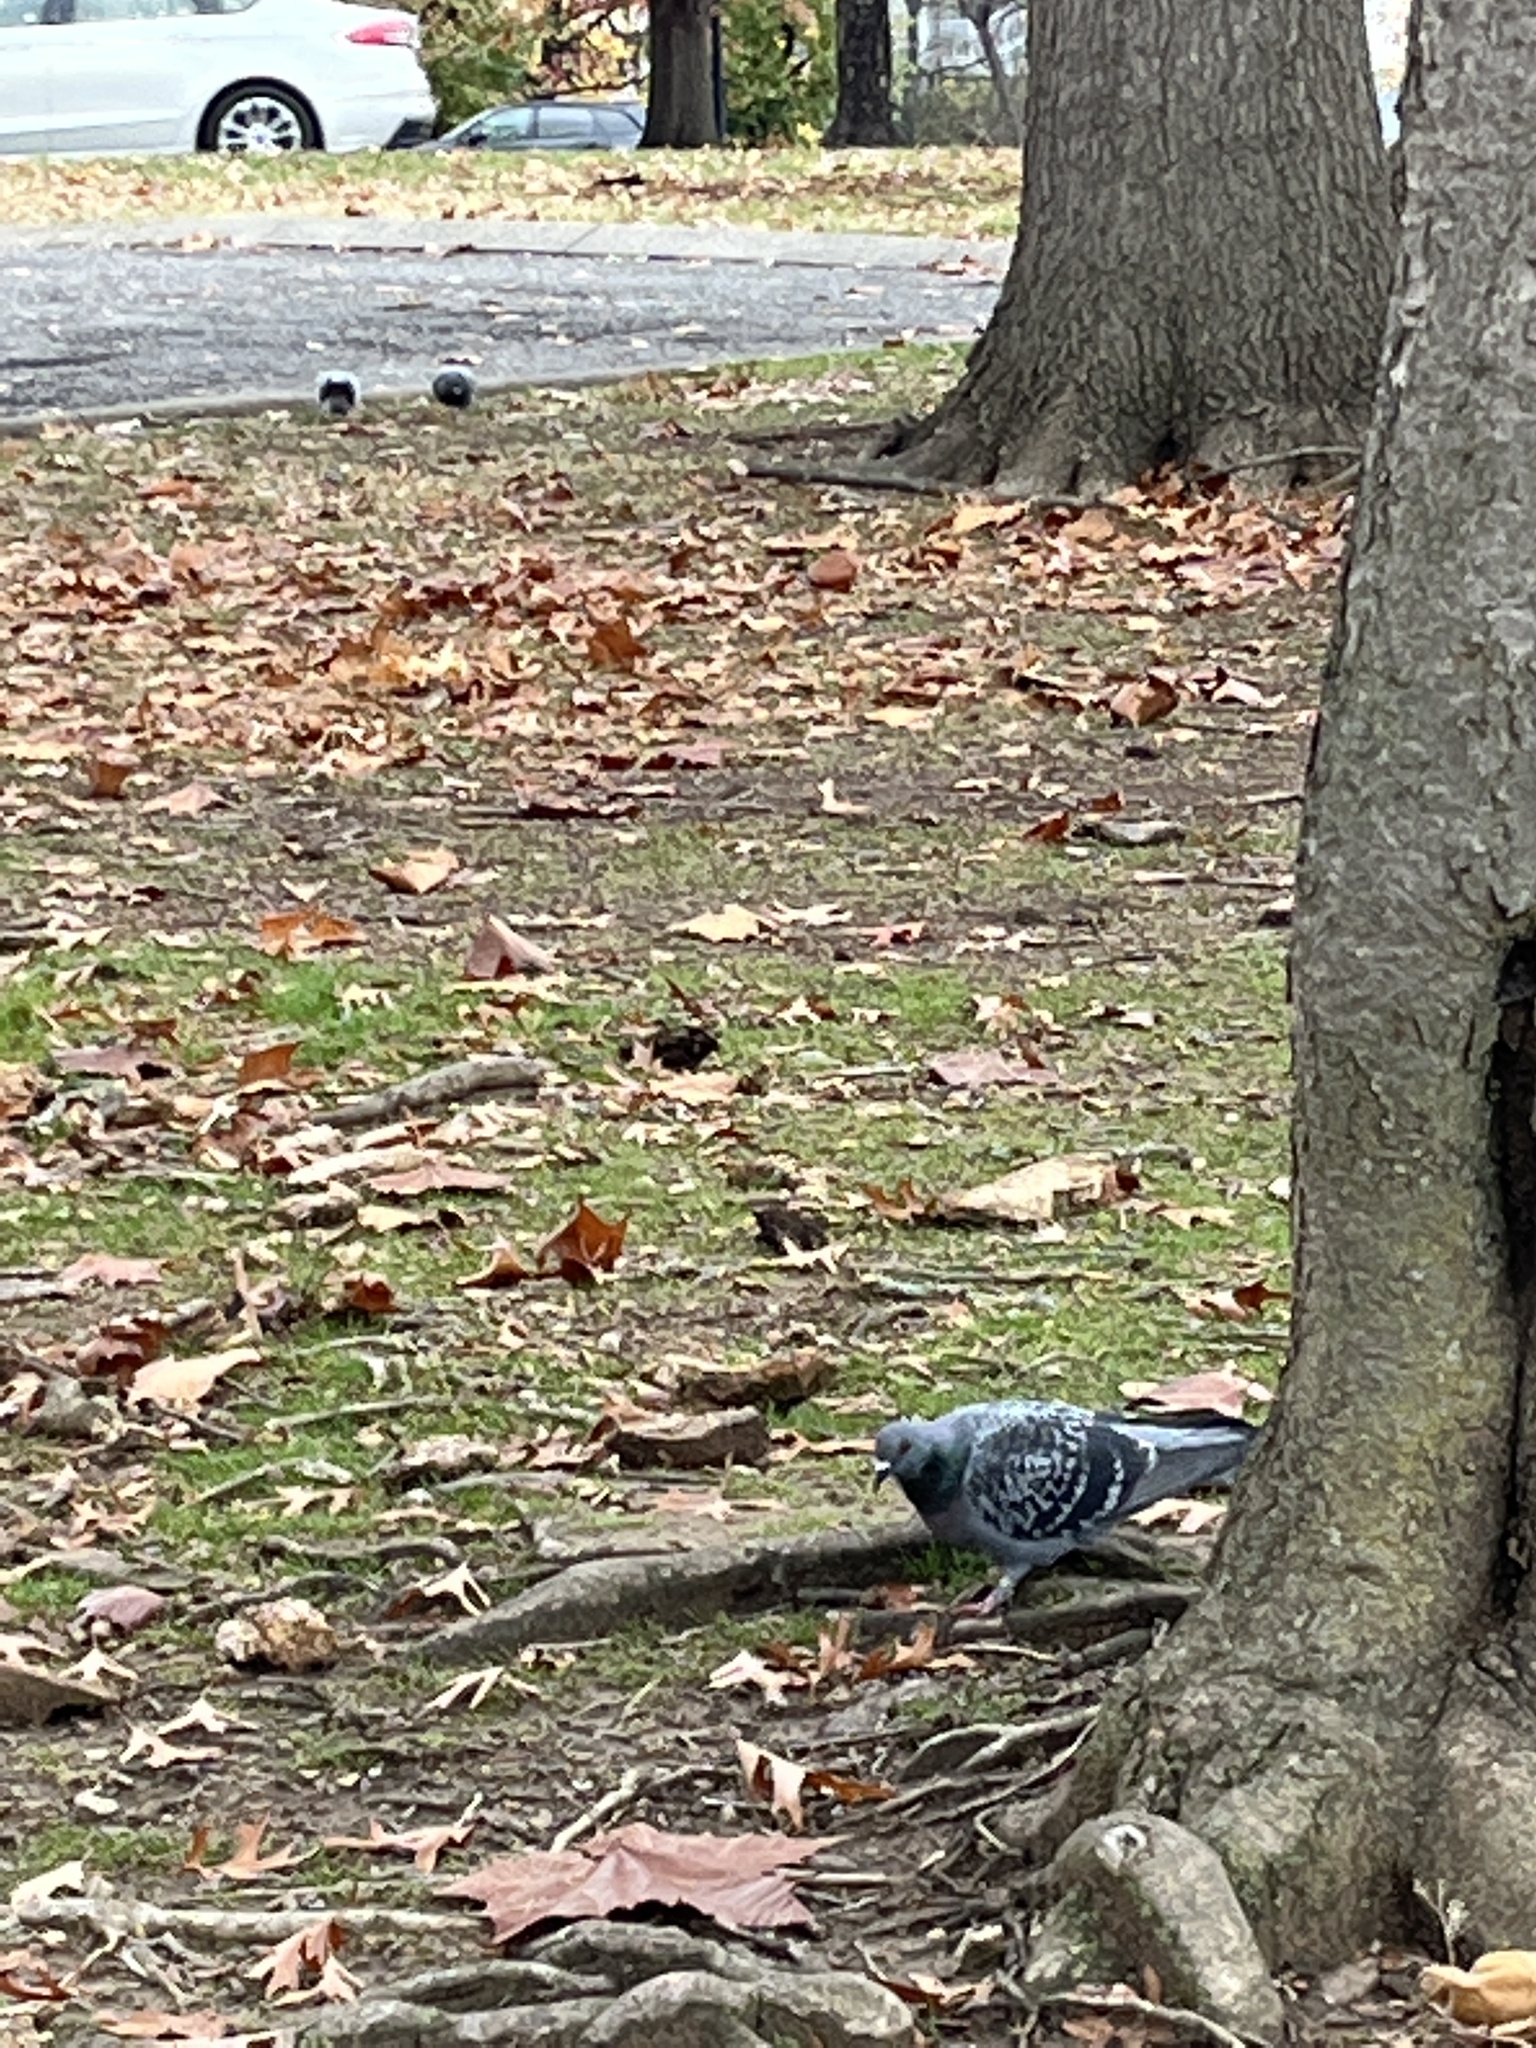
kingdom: Animalia
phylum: Chordata
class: Aves
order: Columbiformes
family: Columbidae
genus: Columba
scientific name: Columba livia
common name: Rock pigeon
